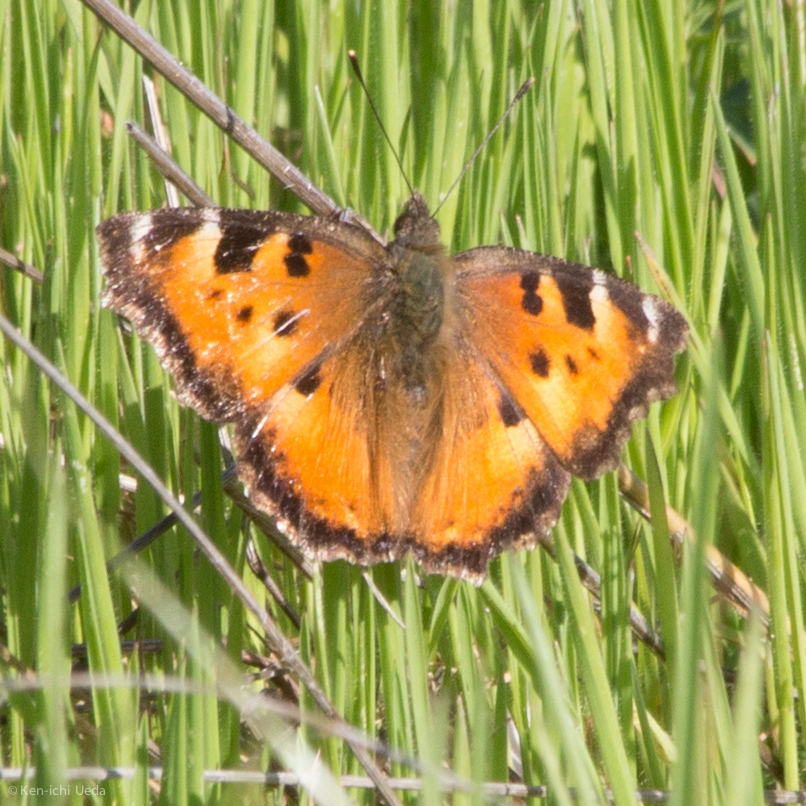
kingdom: Animalia
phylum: Arthropoda
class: Insecta
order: Lepidoptera
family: Nymphalidae
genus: Nymphalis
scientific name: Nymphalis californica
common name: California tortoiseshell
